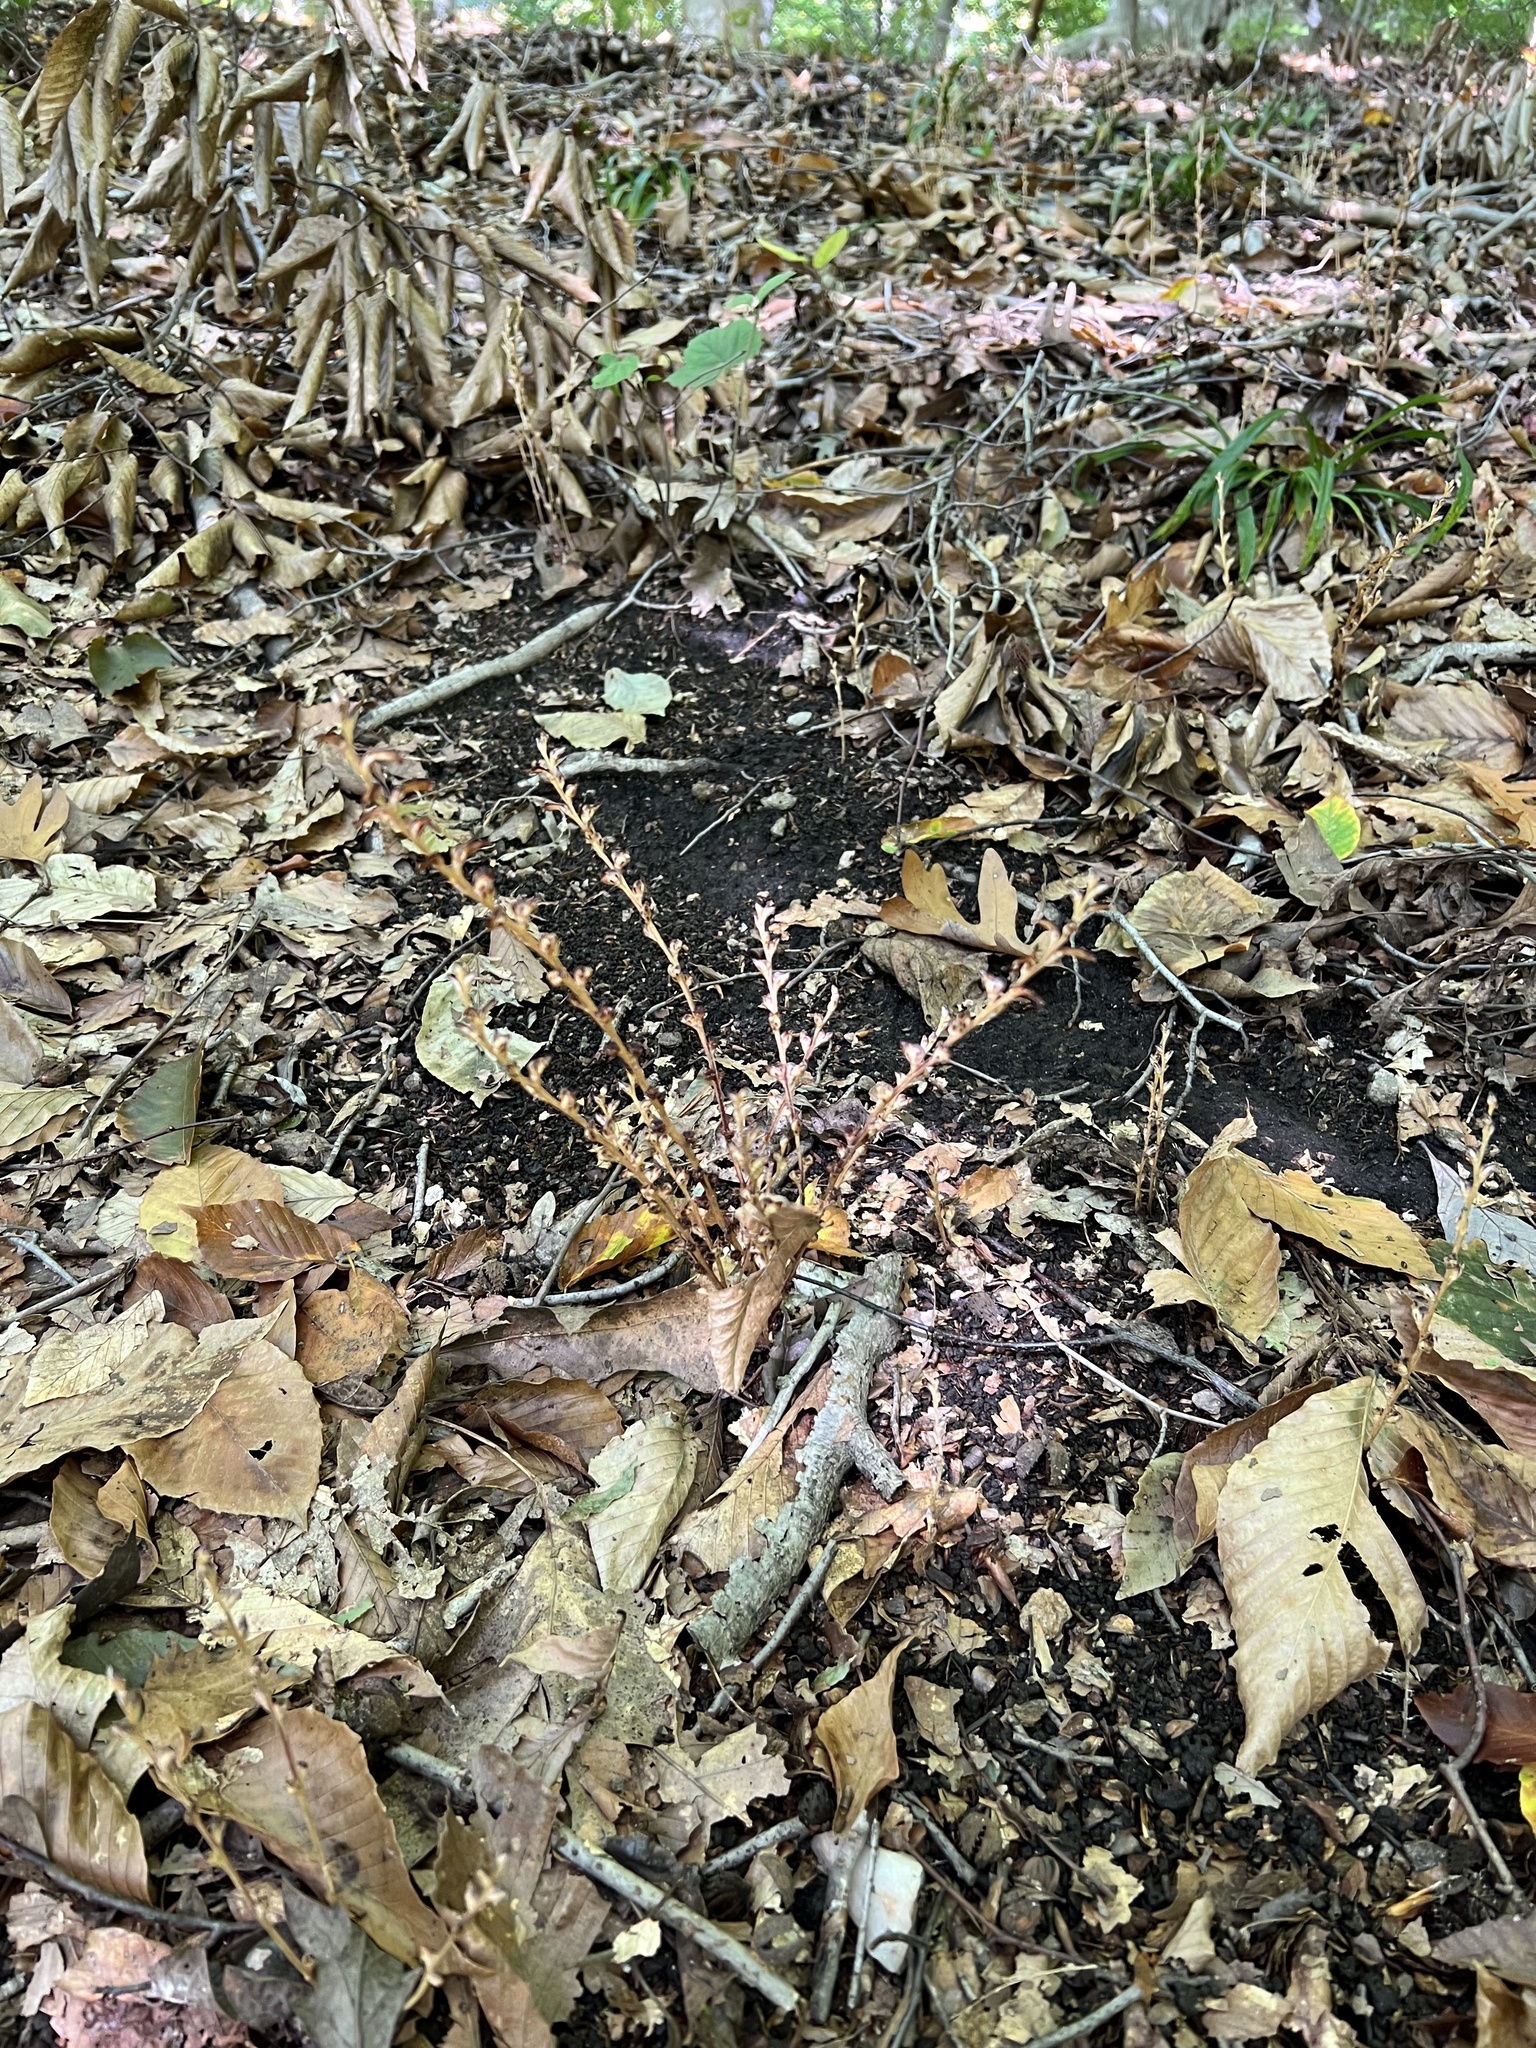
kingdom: Plantae
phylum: Tracheophyta
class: Magnoliopsida
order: Lamiales
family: Orobanchaceae
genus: Epifagus
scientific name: Epifagus virginiana
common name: Beechdrops
